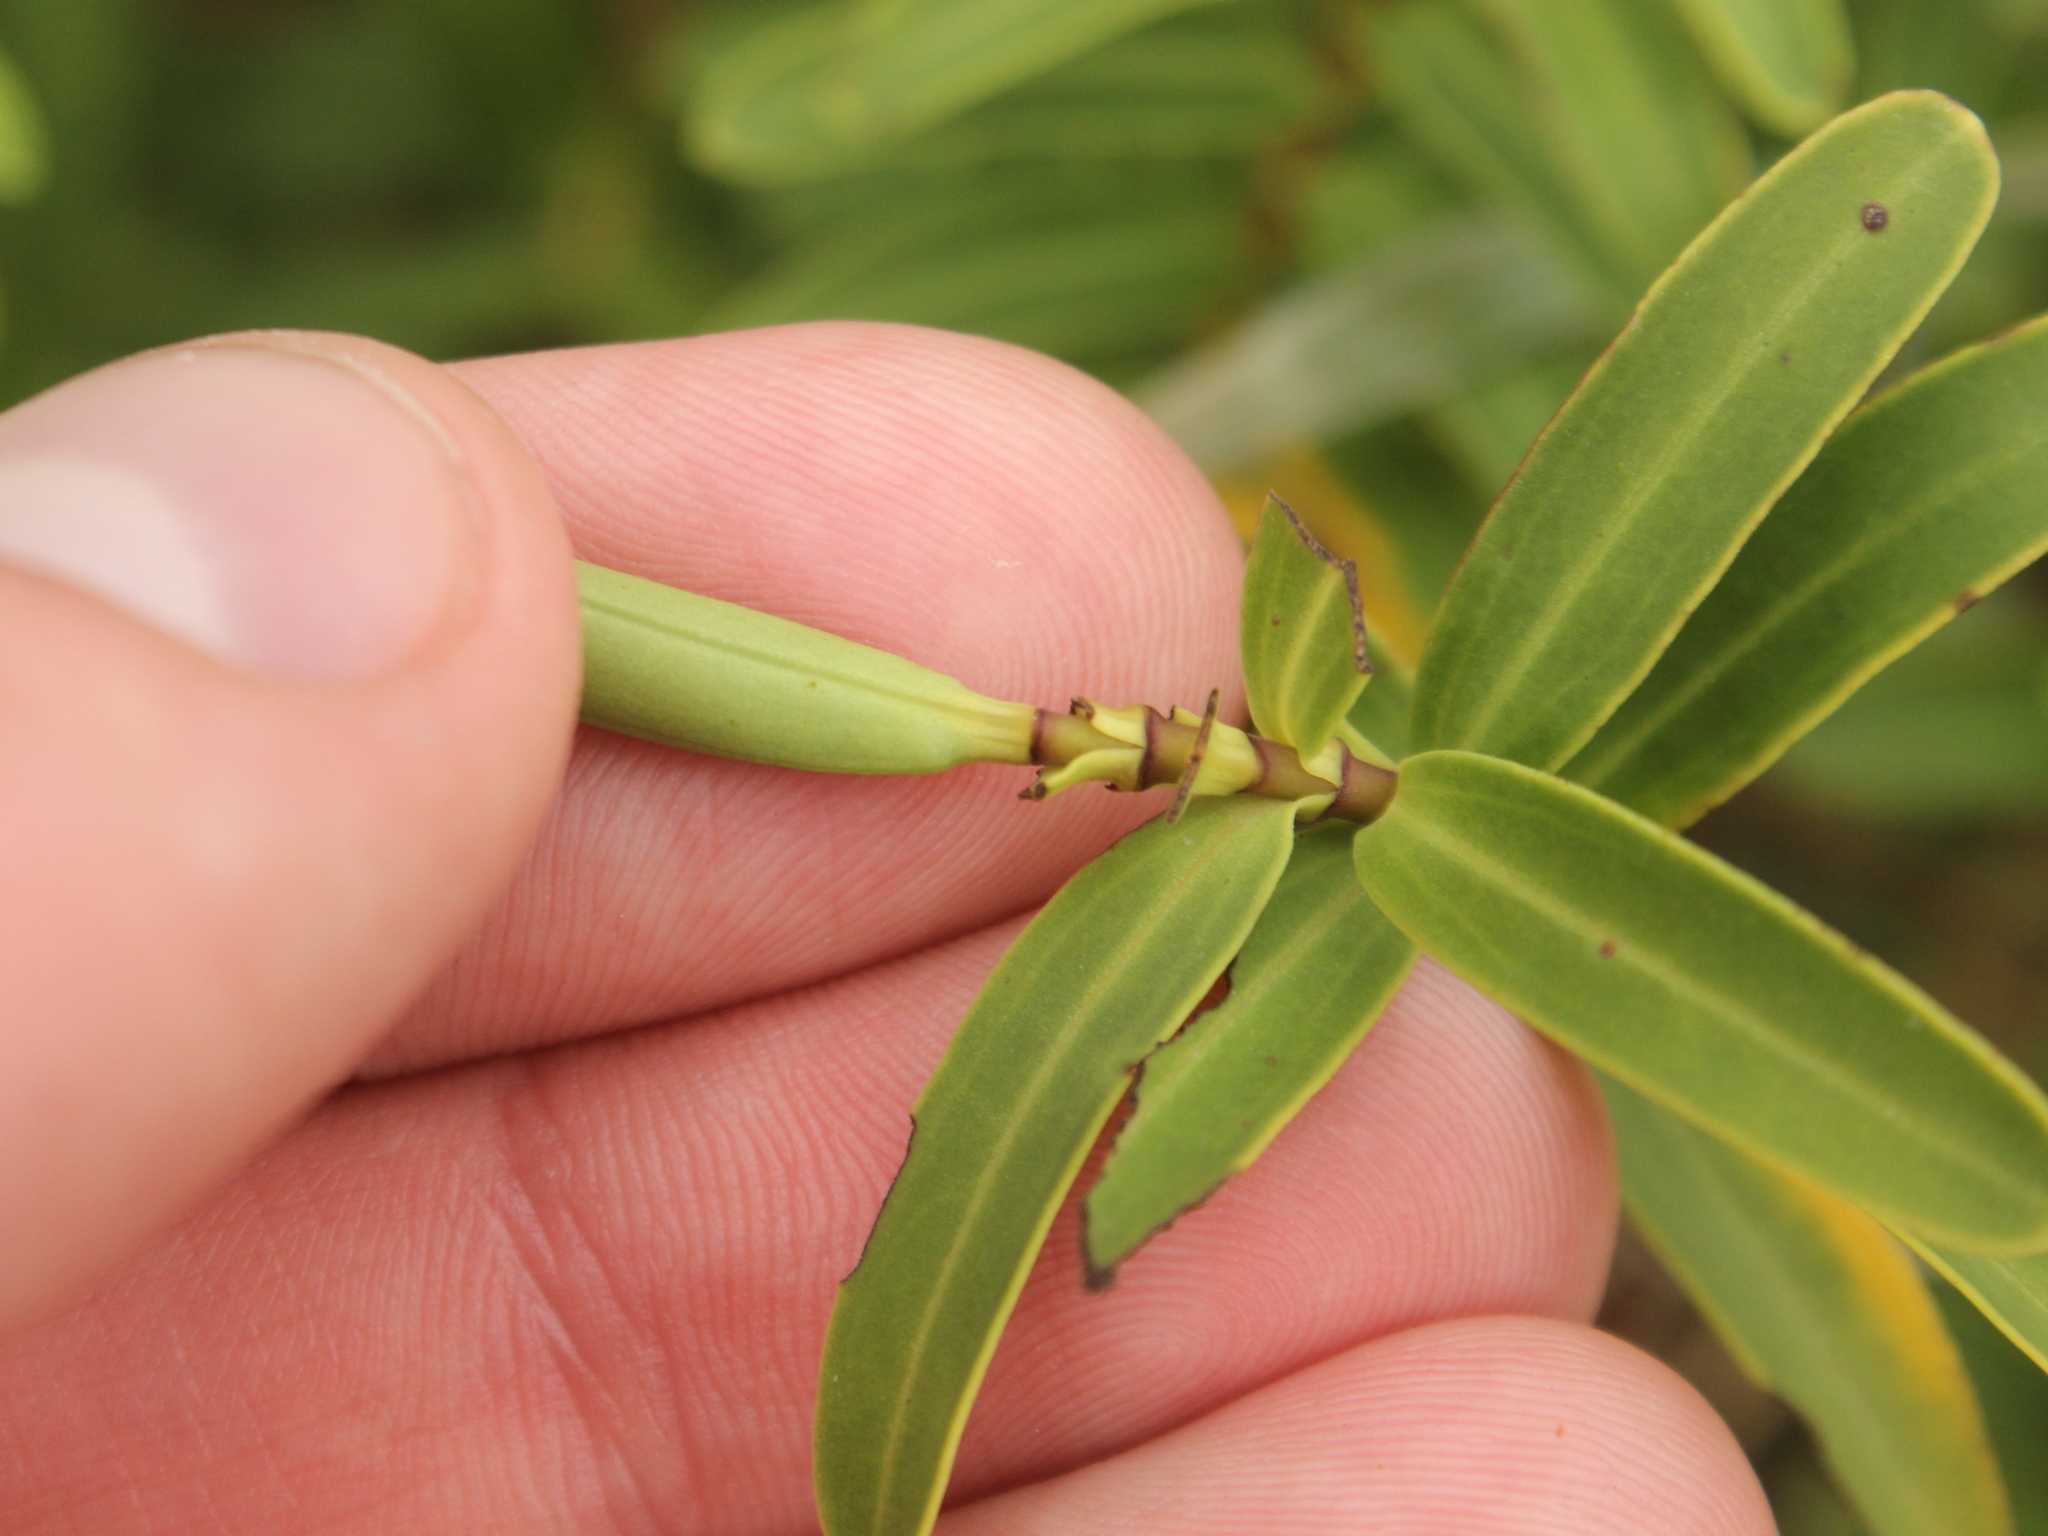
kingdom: Plantae
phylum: Tracheophyta
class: Magnoliopsida
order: Lamiales
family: Plantaginaceae
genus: Veronica
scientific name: Veronica strictissima
